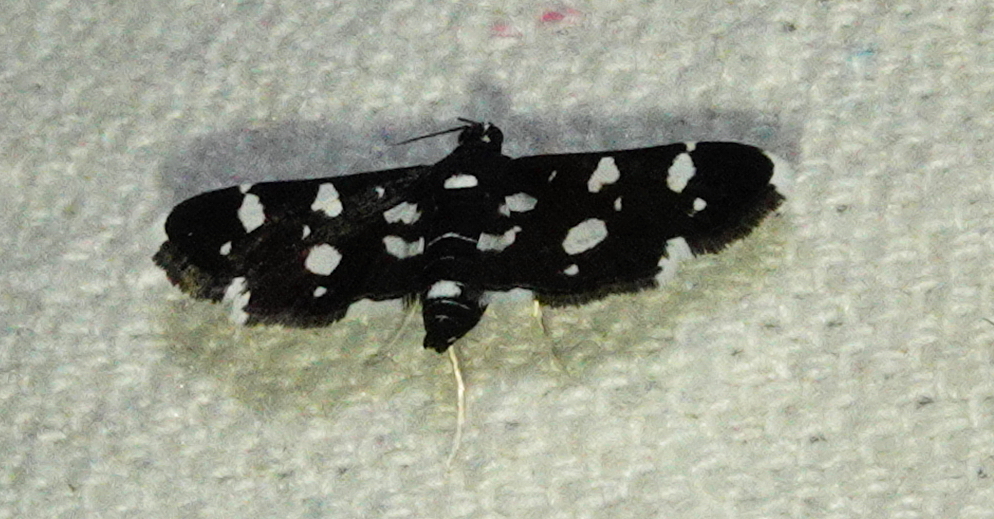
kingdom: Animalia
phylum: Arthropoda
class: Insecta
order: Lepidoptera
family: Crambidae
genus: Bocchoris
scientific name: Bocchoris inspersalis
